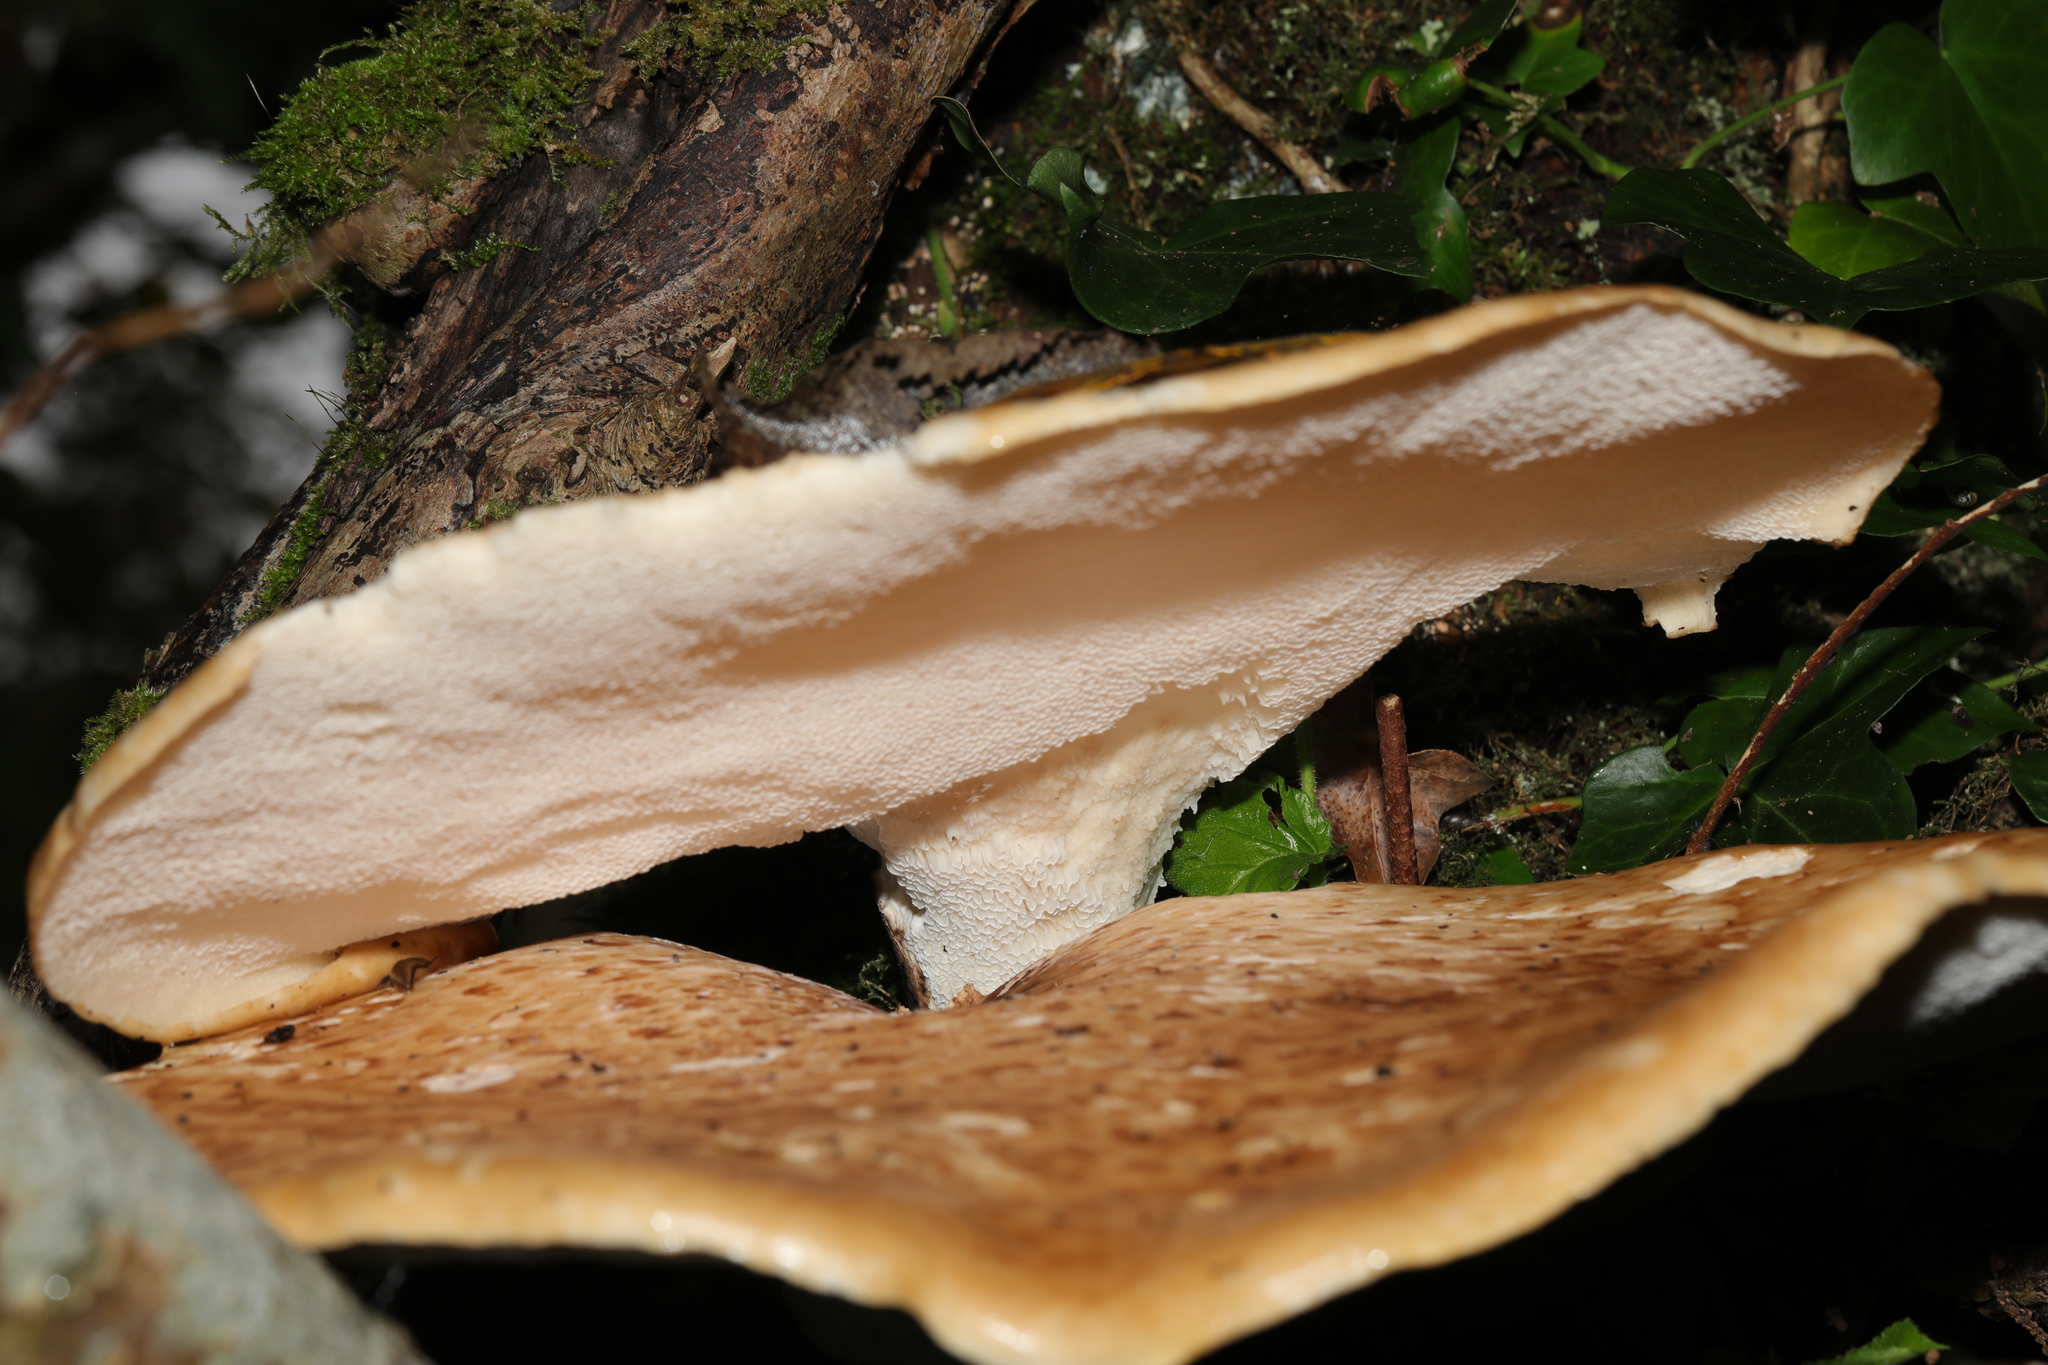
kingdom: Fungi
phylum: Basidiomycota
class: Agaricomycetes
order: Polyporales
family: Polyporaceae
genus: Cerioporus
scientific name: Cerioporus squamosus
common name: Dryad's saddle
